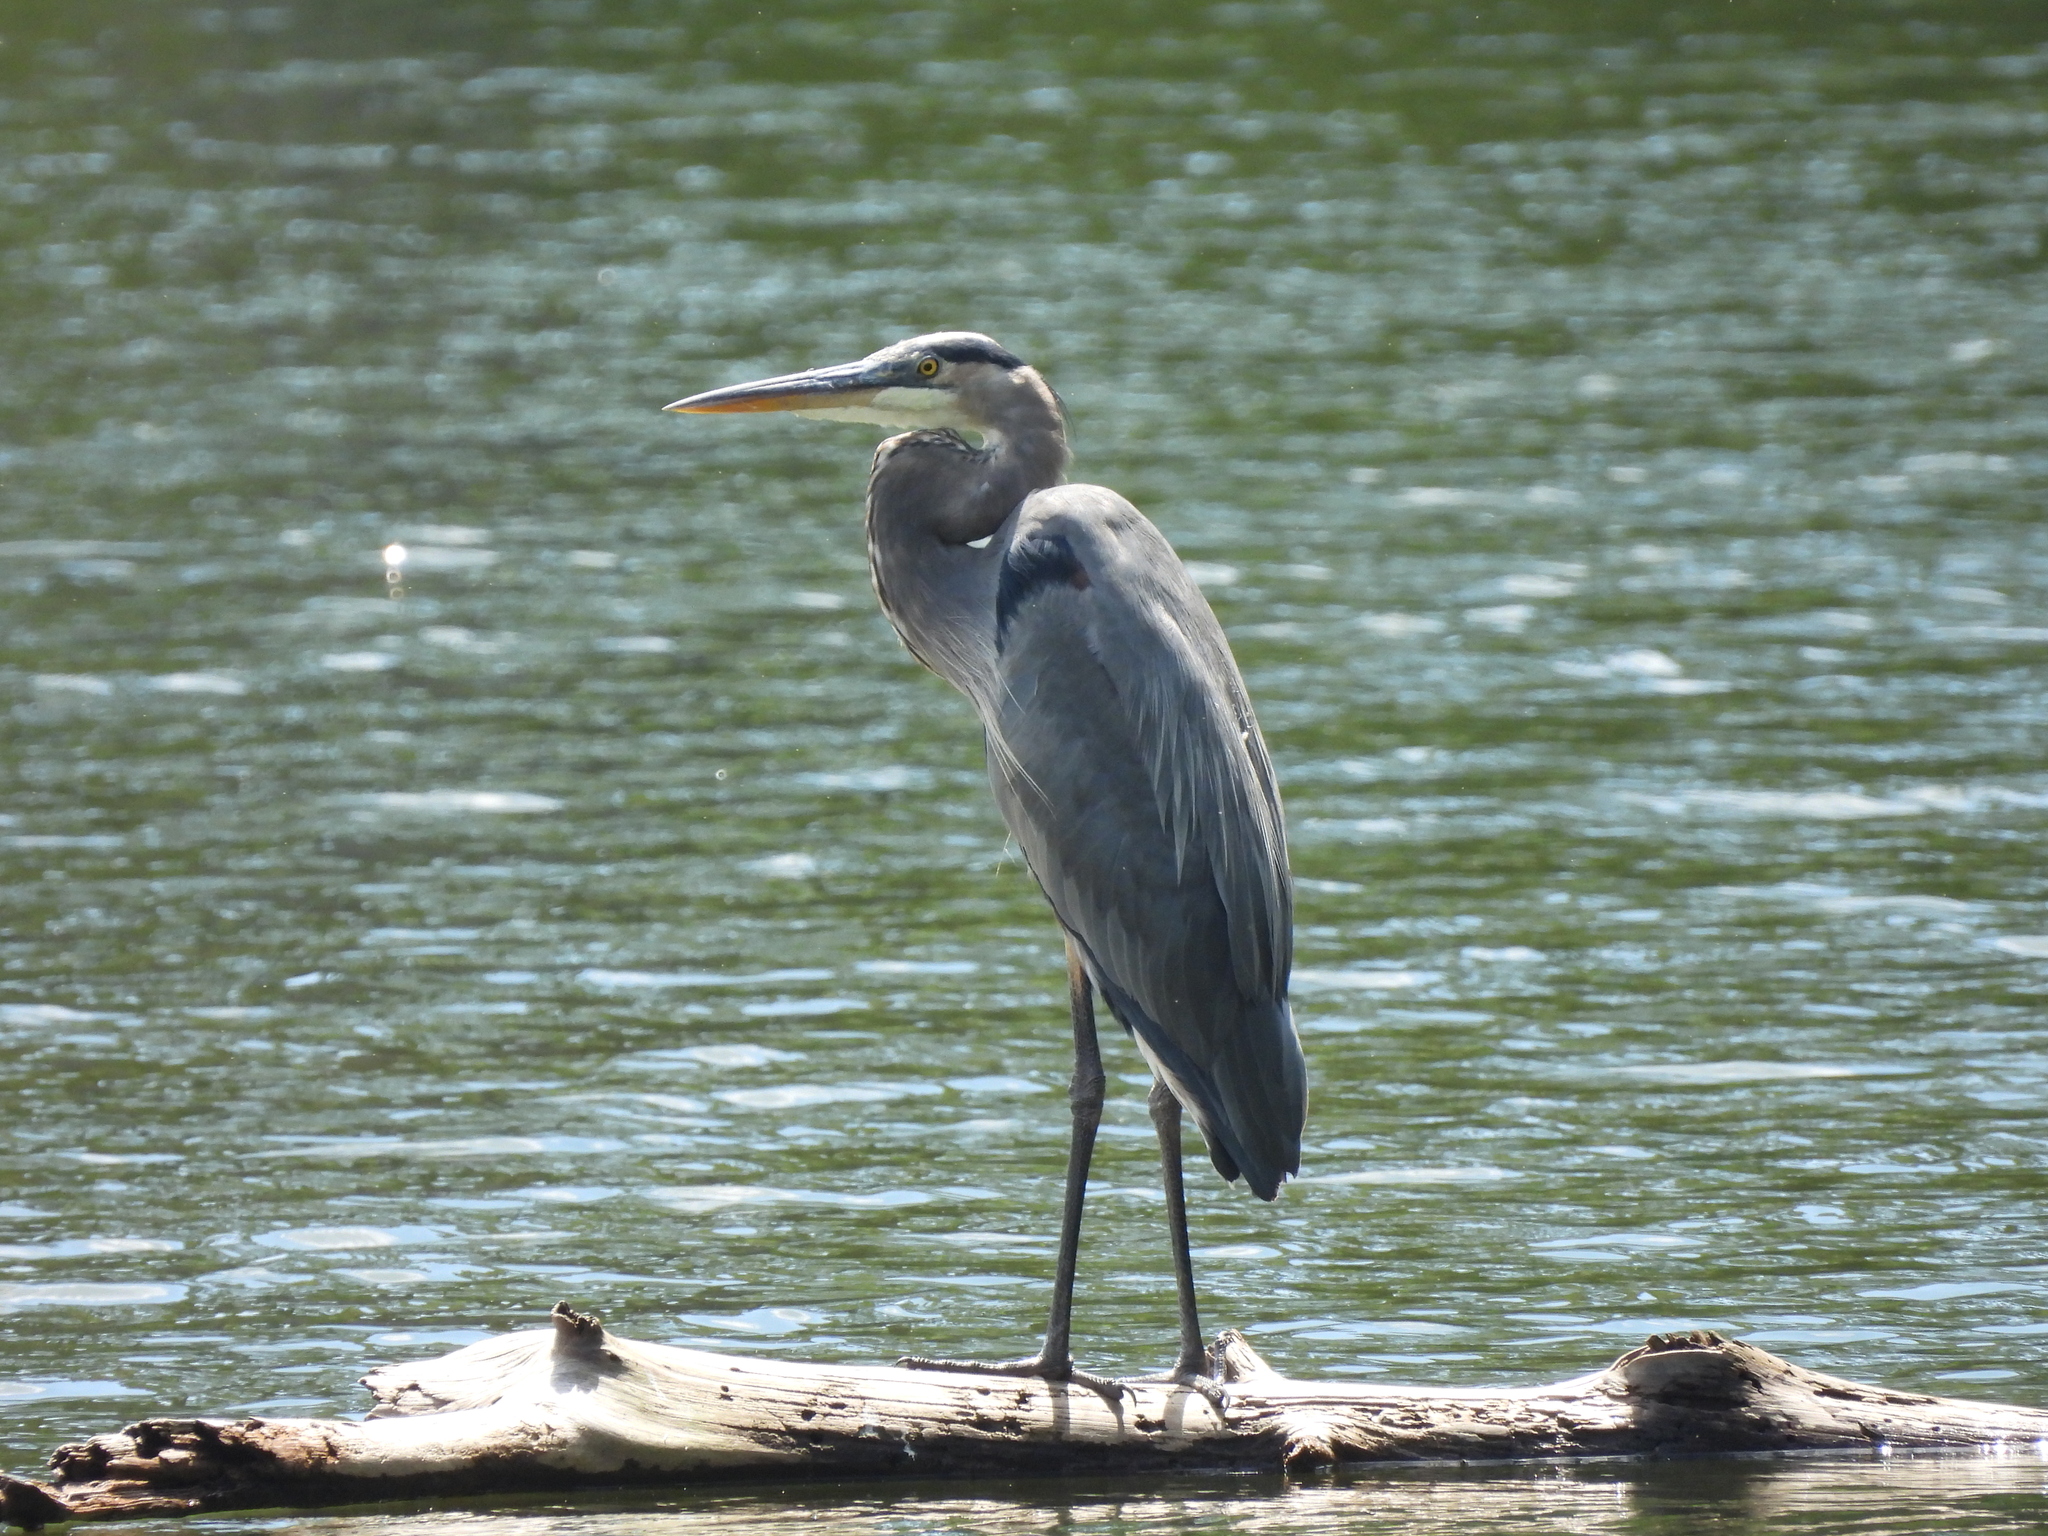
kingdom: Animalia
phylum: Chordata
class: Aves
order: Pelecaniformes
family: Ardeidae
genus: Ardea
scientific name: Ardea herodias
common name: Great blue heron
